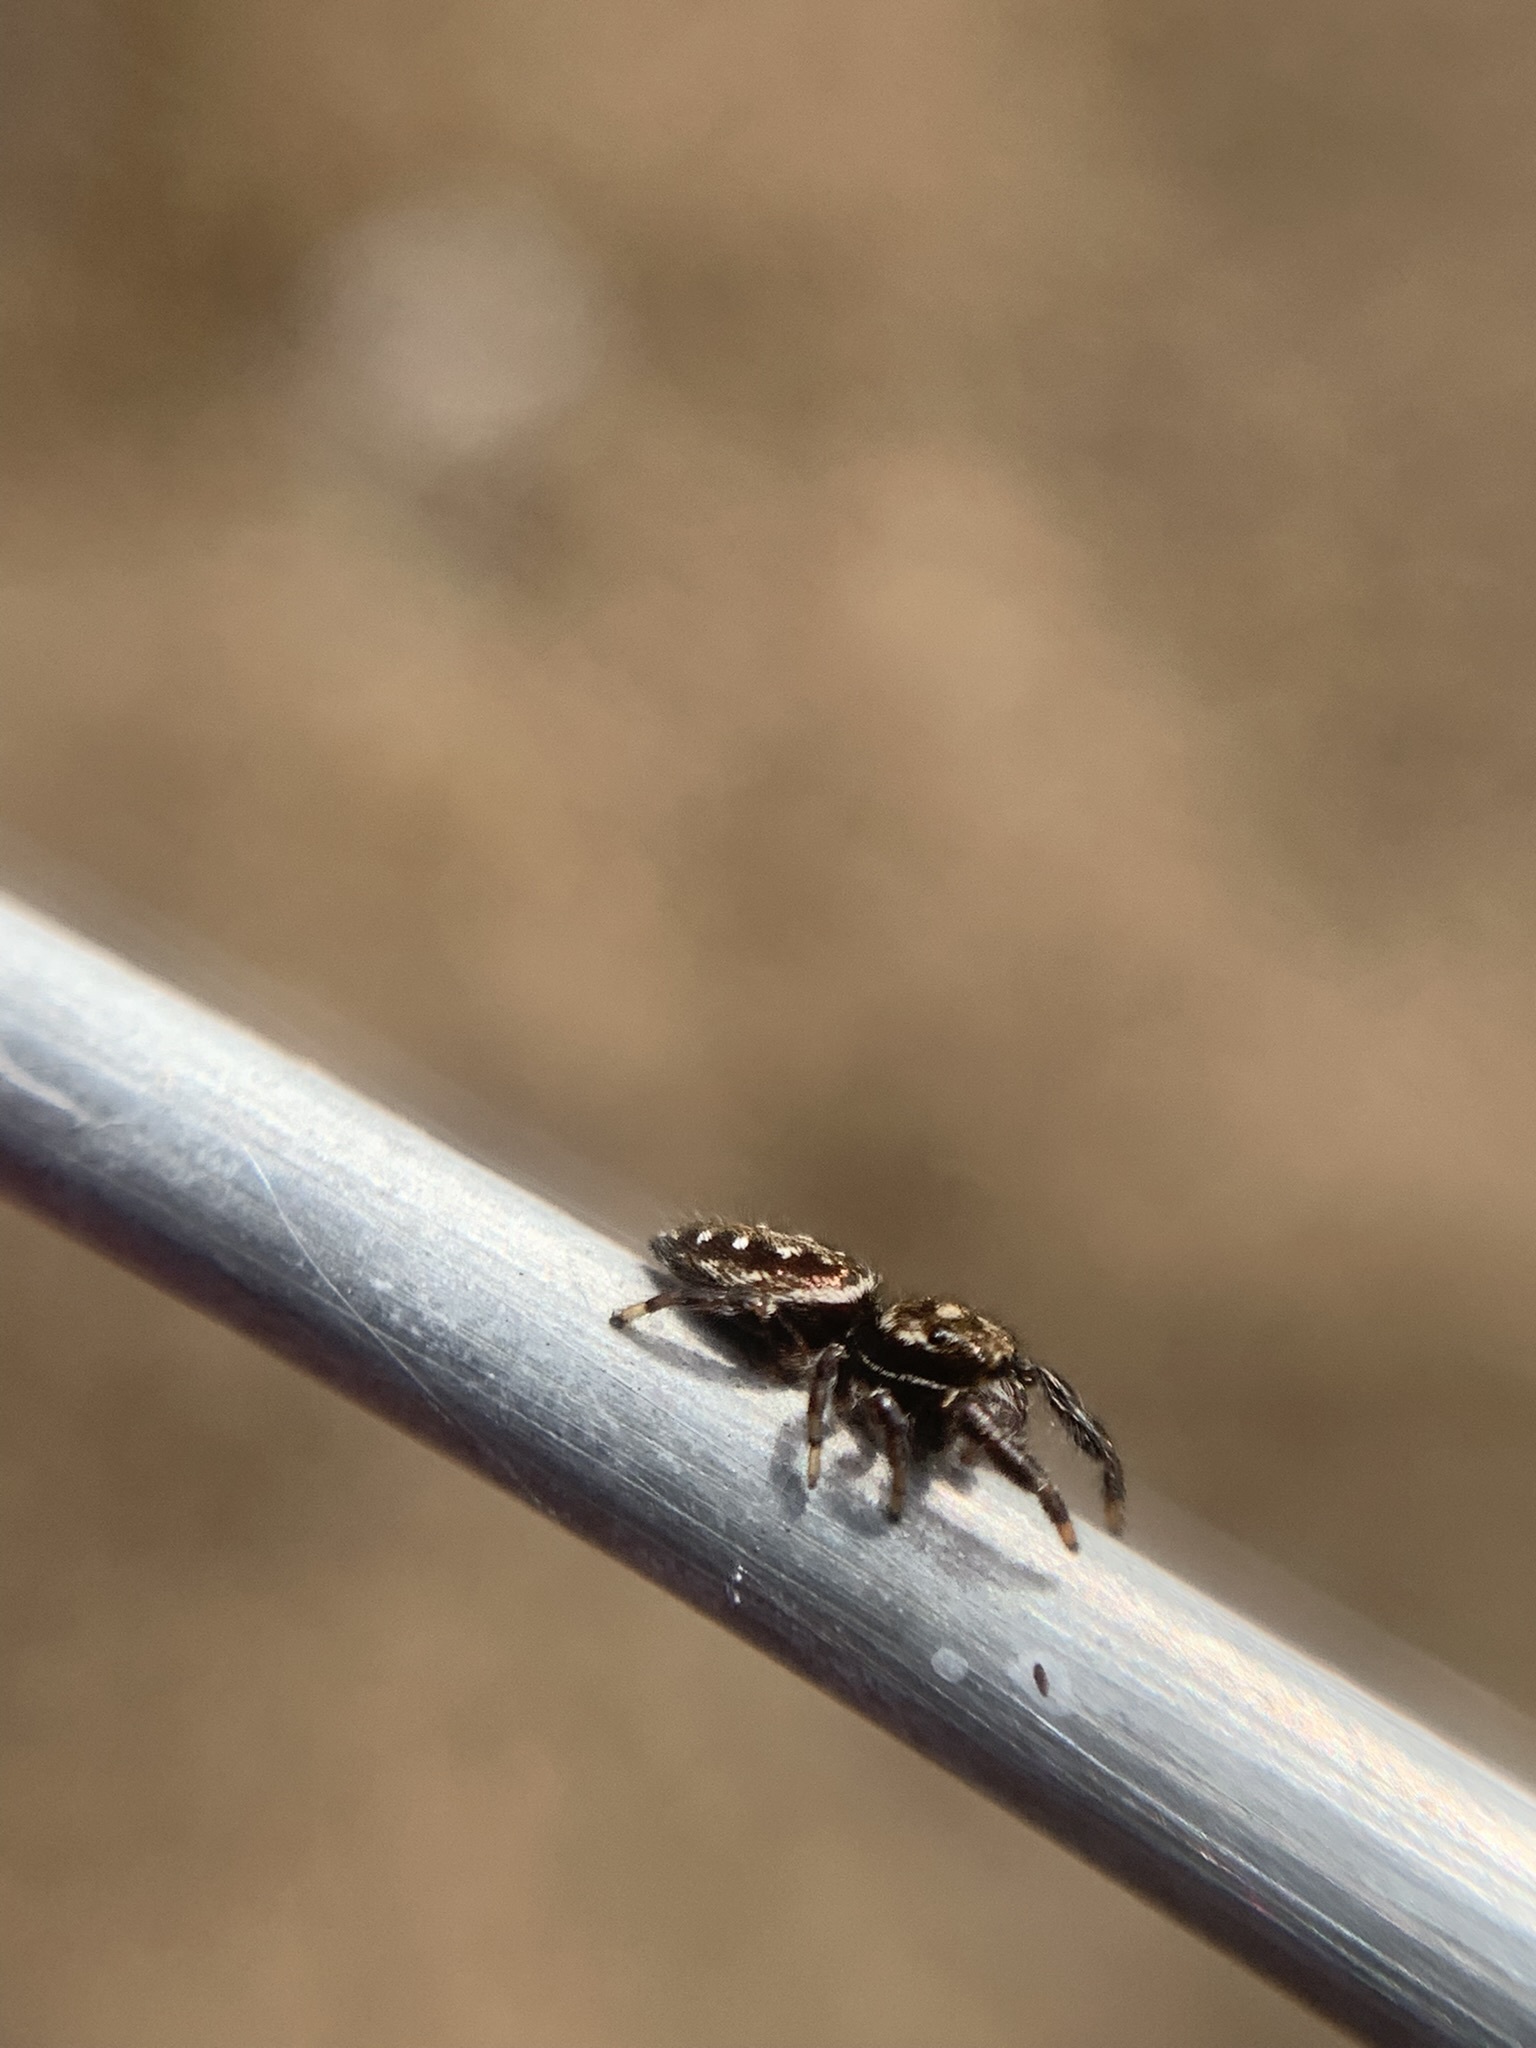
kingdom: Animalia
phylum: Arthropoda
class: Arachnida
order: Araneae
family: Salticidae
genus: Dendryphantes
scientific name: Dendryphantes mordax
